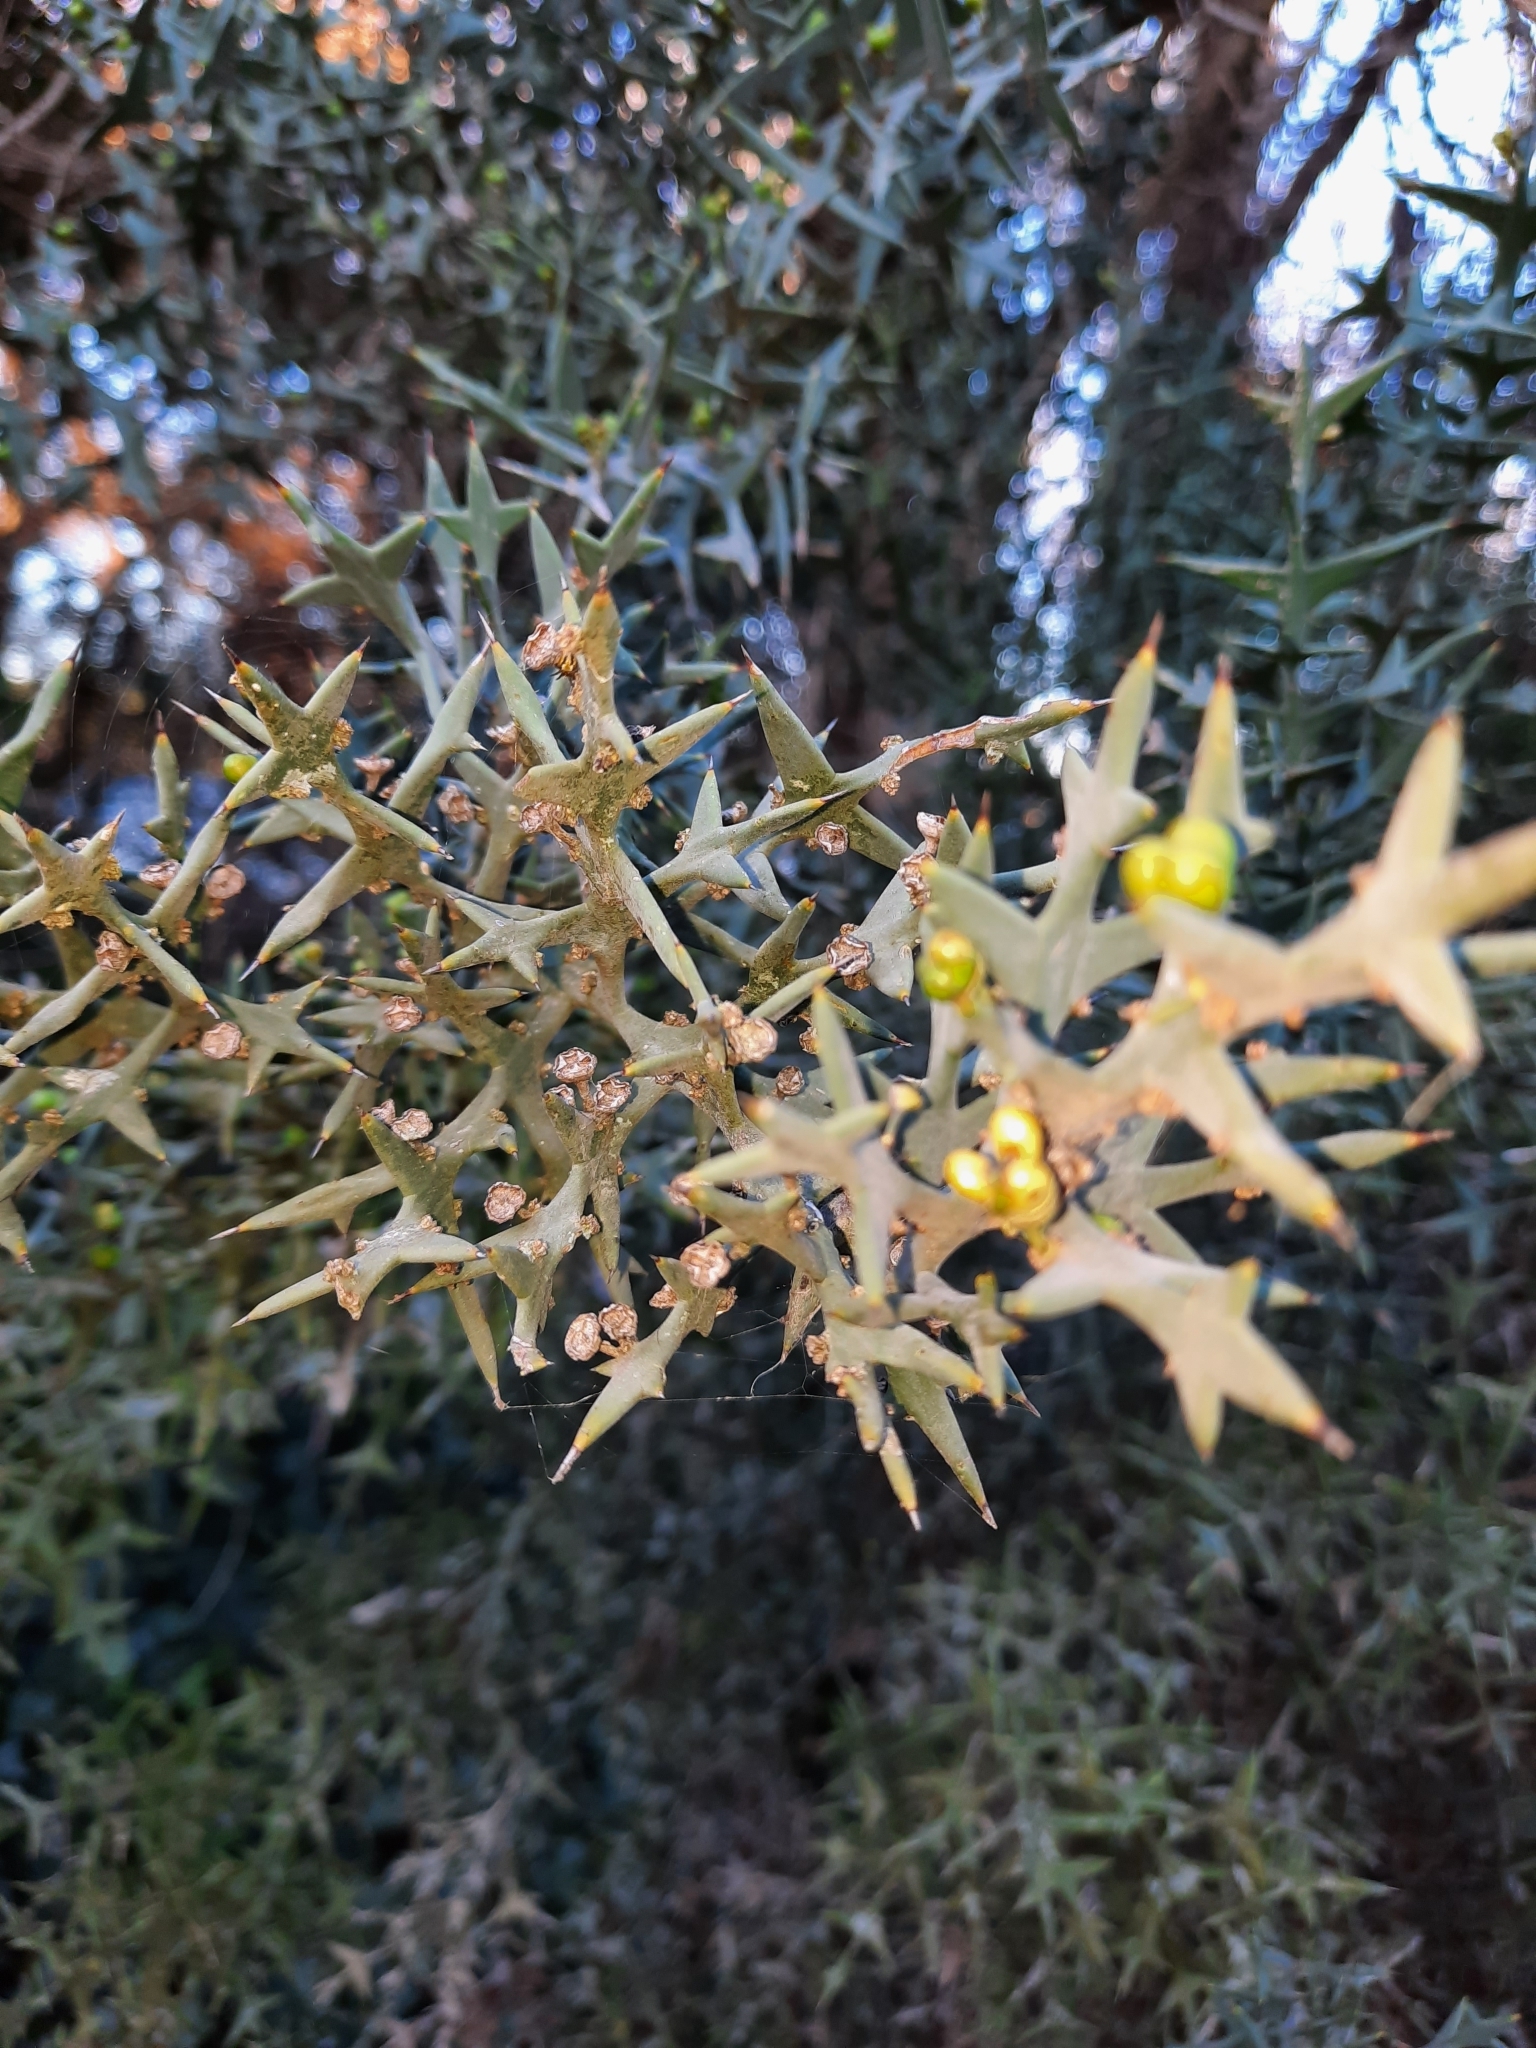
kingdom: Plantae
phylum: Tracheophyta
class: Magnoliopsida
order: Rosales
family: Rhamnaceae
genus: Colletia
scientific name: Colletia paradoxa
